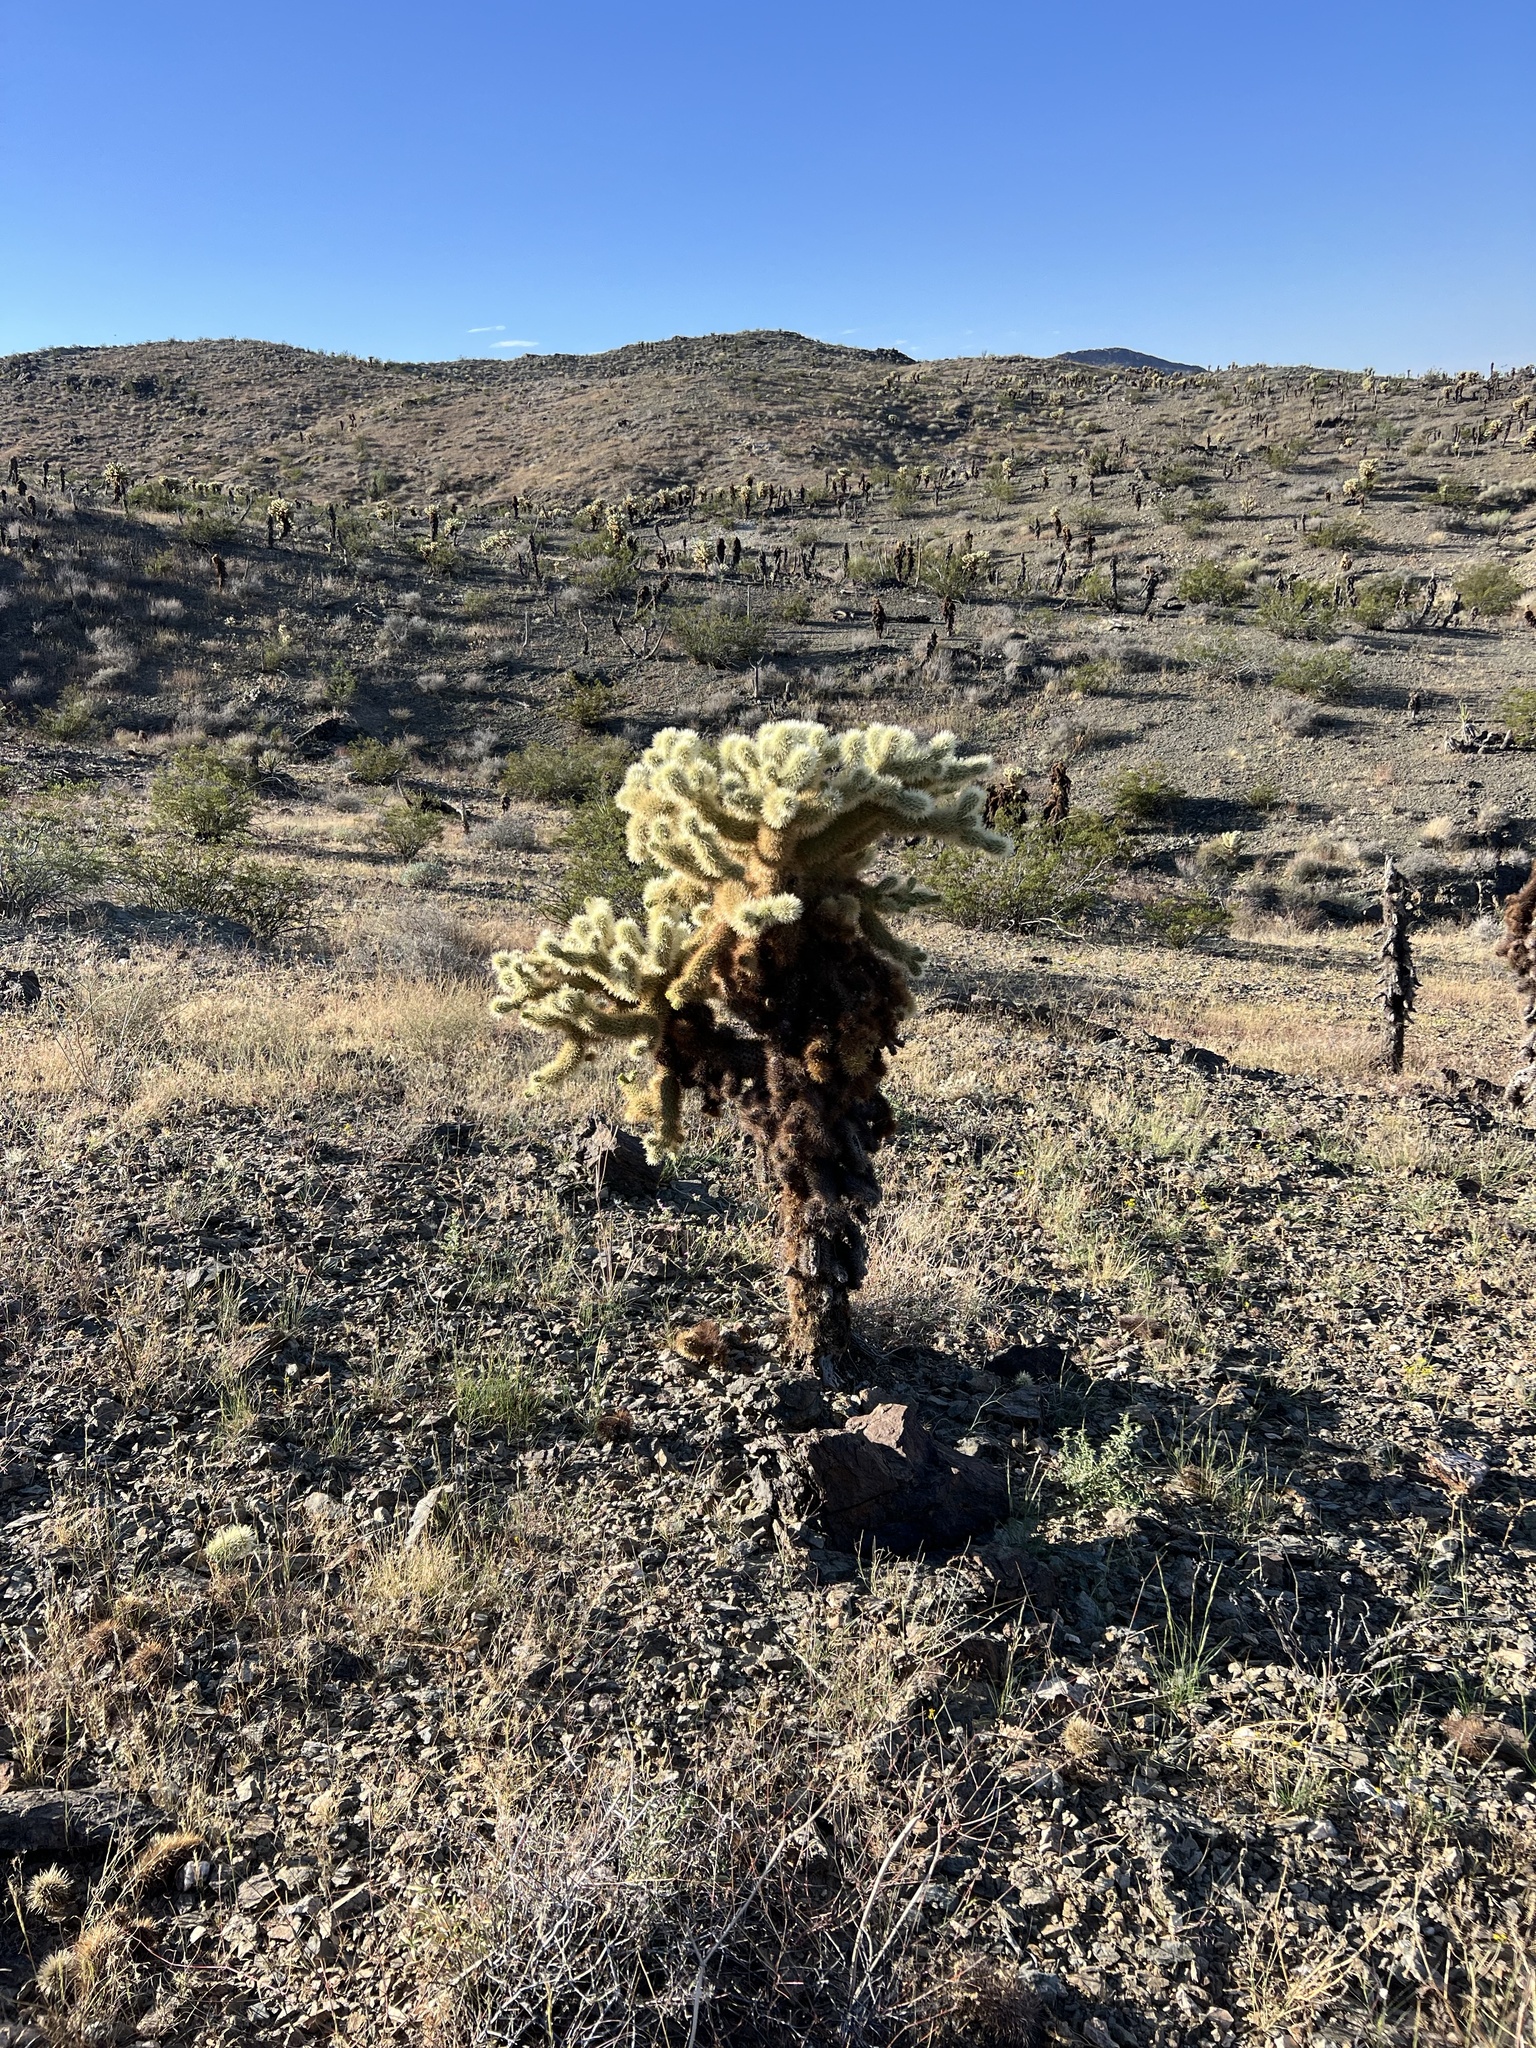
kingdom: Plantae
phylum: Tracheophyta
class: Magnoliopsida
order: Caryophyllales
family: Cactaceae
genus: Cylindropuntia
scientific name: Cylindropuntia fosbergii
